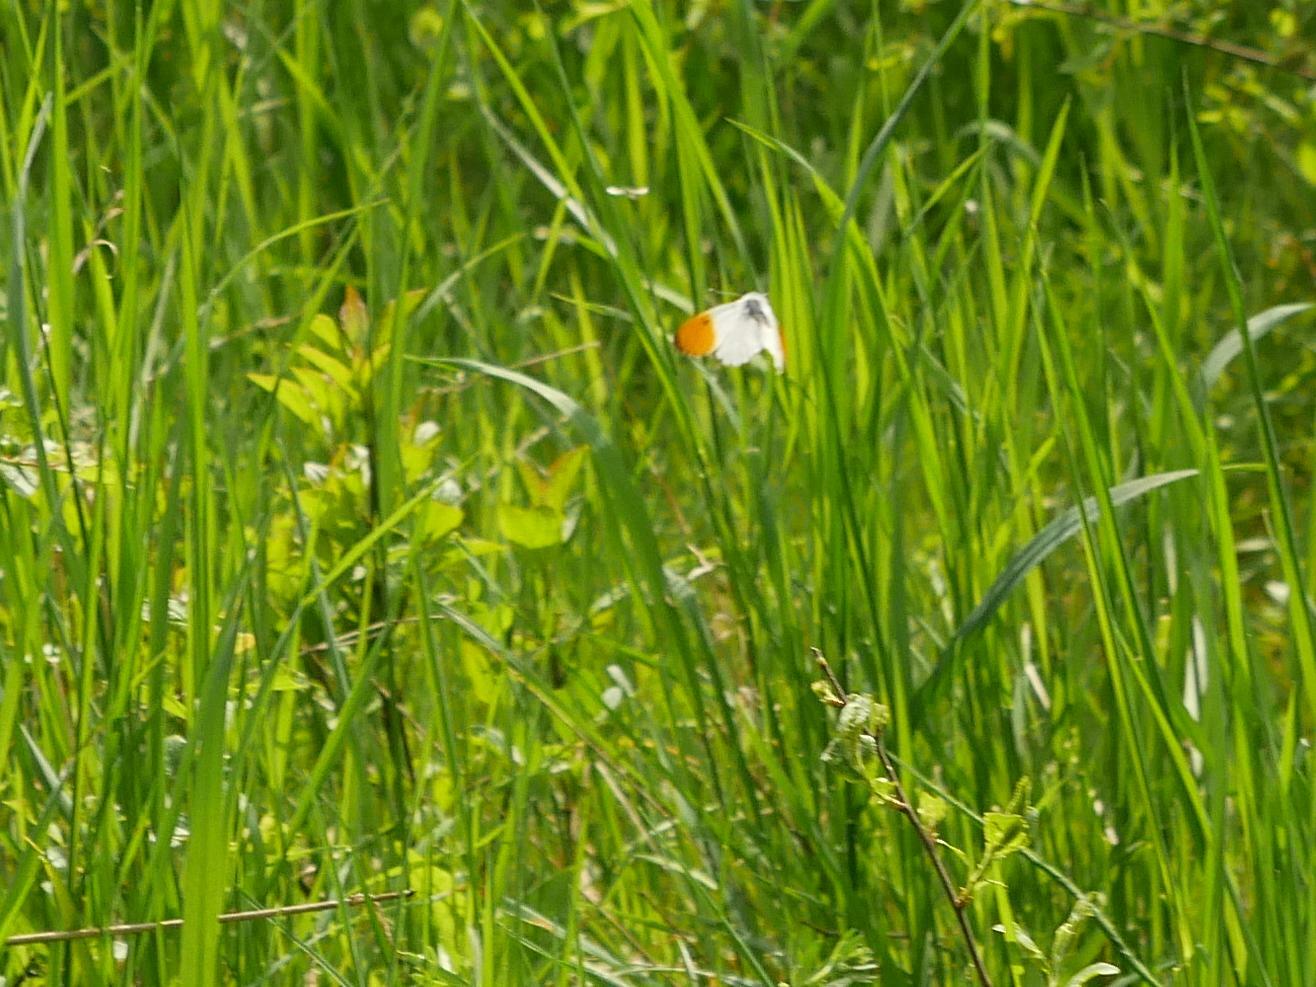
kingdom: Animalia
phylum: Arthropoda
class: Insecta
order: Lepidoptera
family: Pieridae
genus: Anthocharis
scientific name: Anthocharis cardamines
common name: Orange-tip
